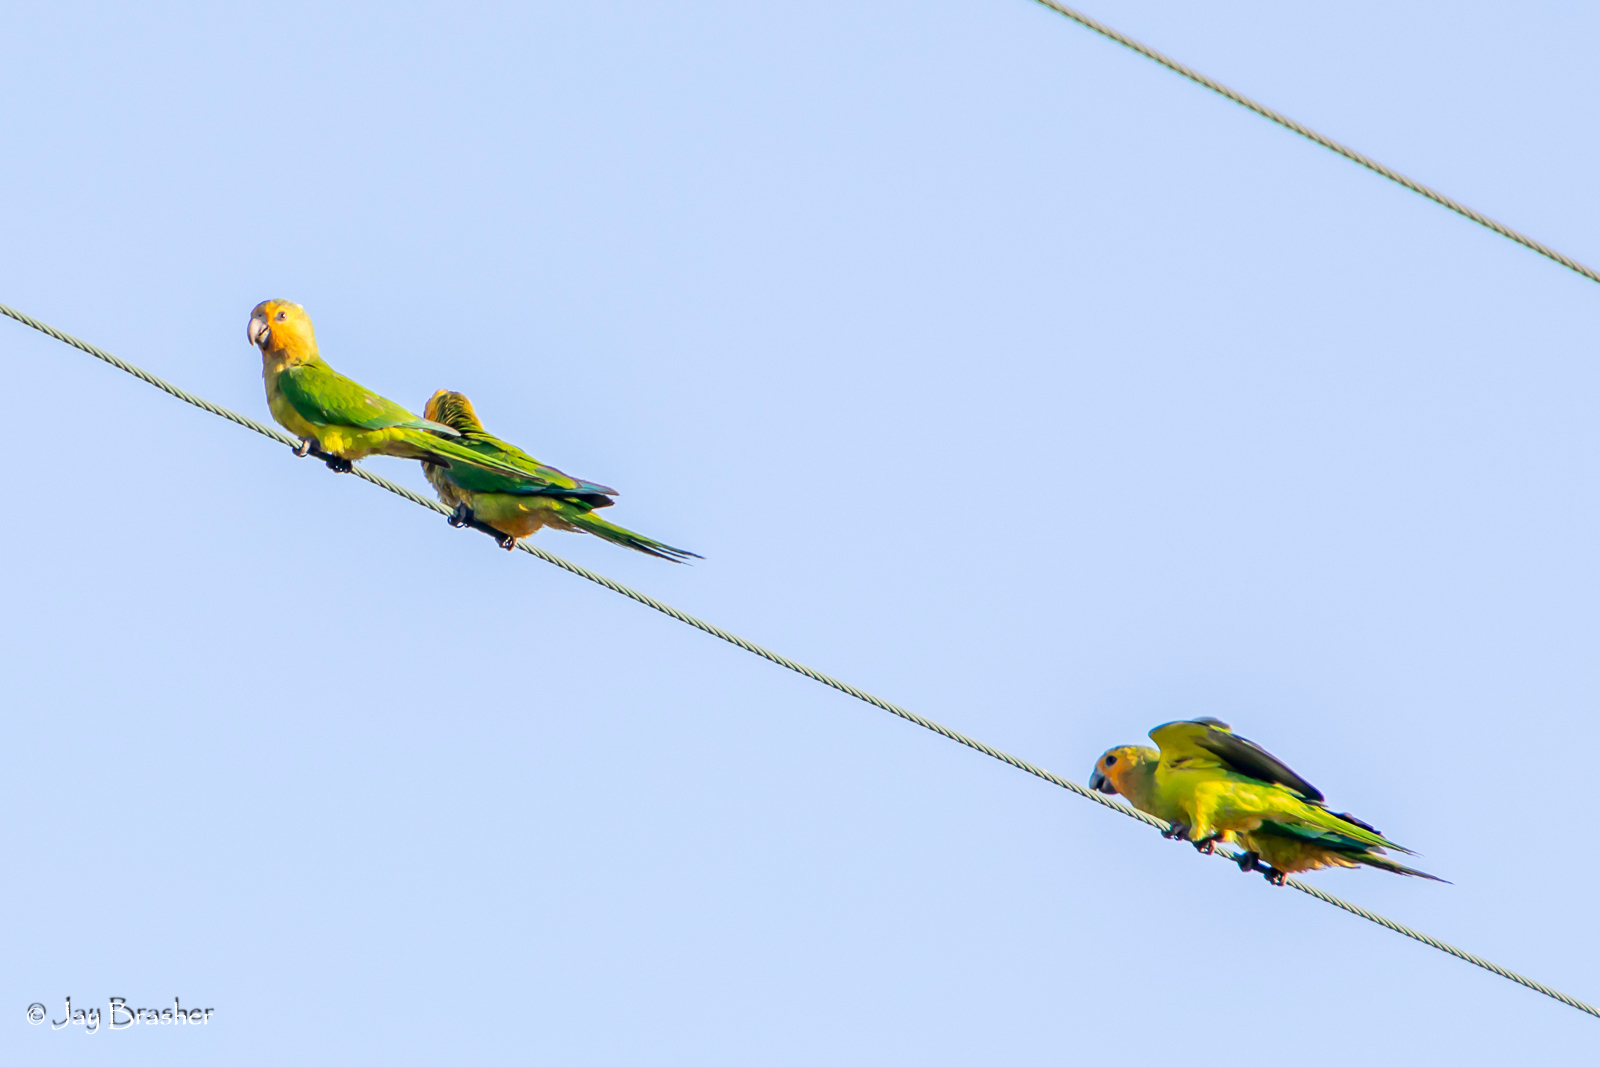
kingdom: Animalia
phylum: Chordata
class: Aves
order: Psittaciformes
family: Psittacidae
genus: Aratinga
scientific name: Aratinga pertinax
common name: Brown-throated parakeet
